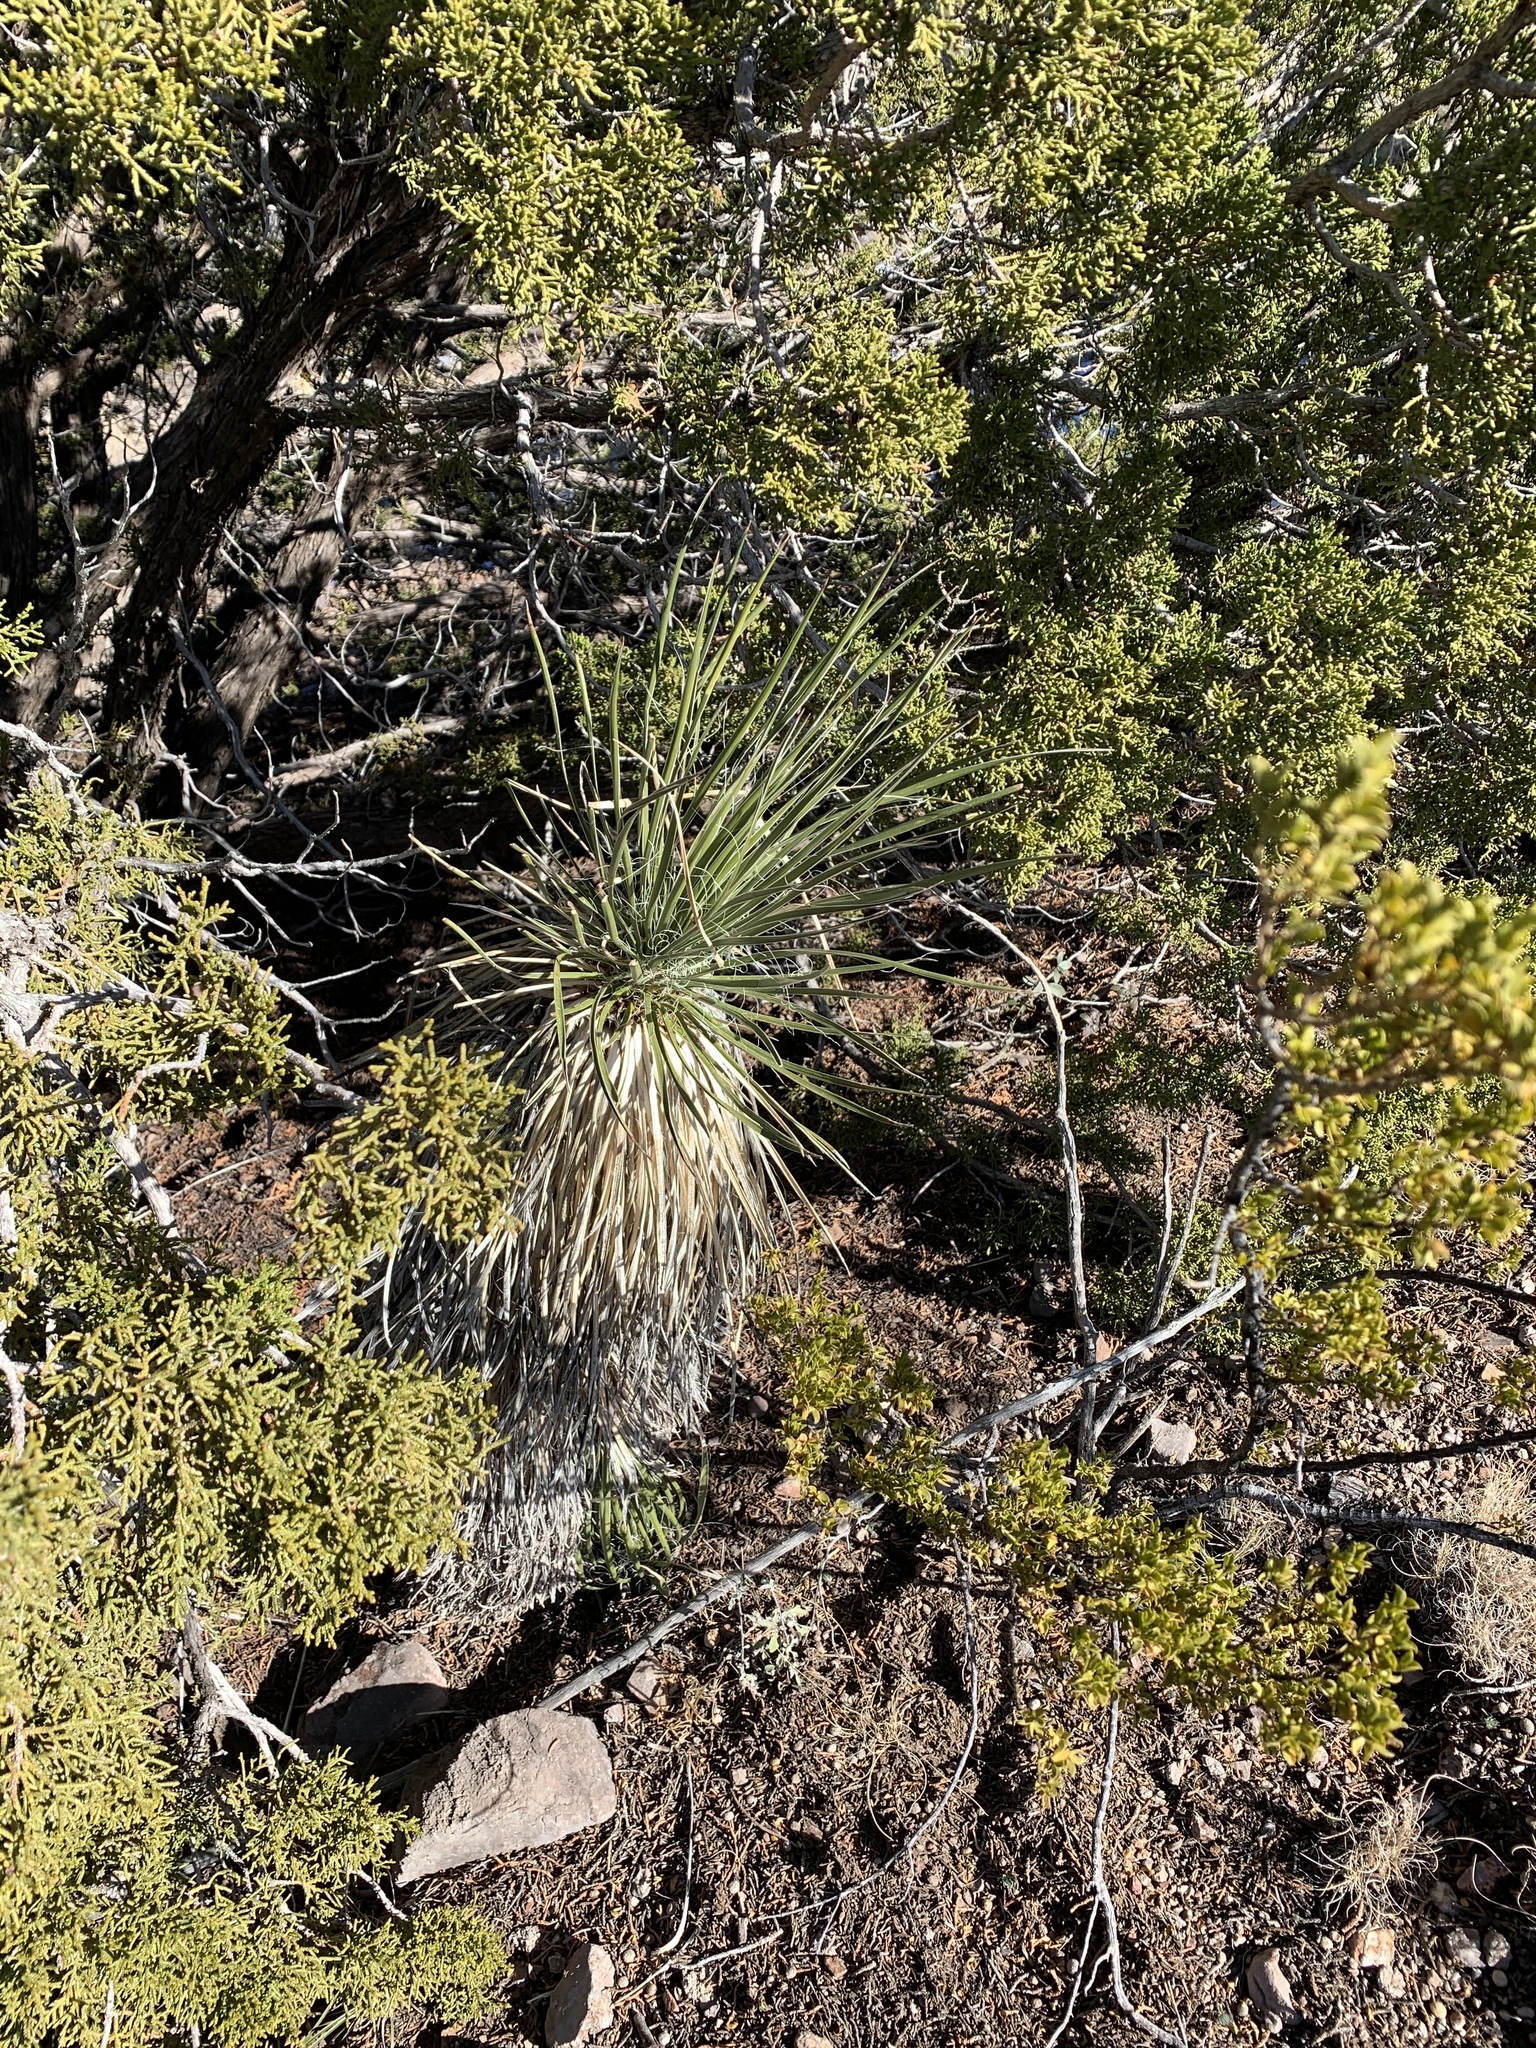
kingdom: Plantae
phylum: Tracheophyta
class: Liliopsida
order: Asparagales
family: Asparagaceae
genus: Yucca
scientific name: Yucca elata
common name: Palmella
